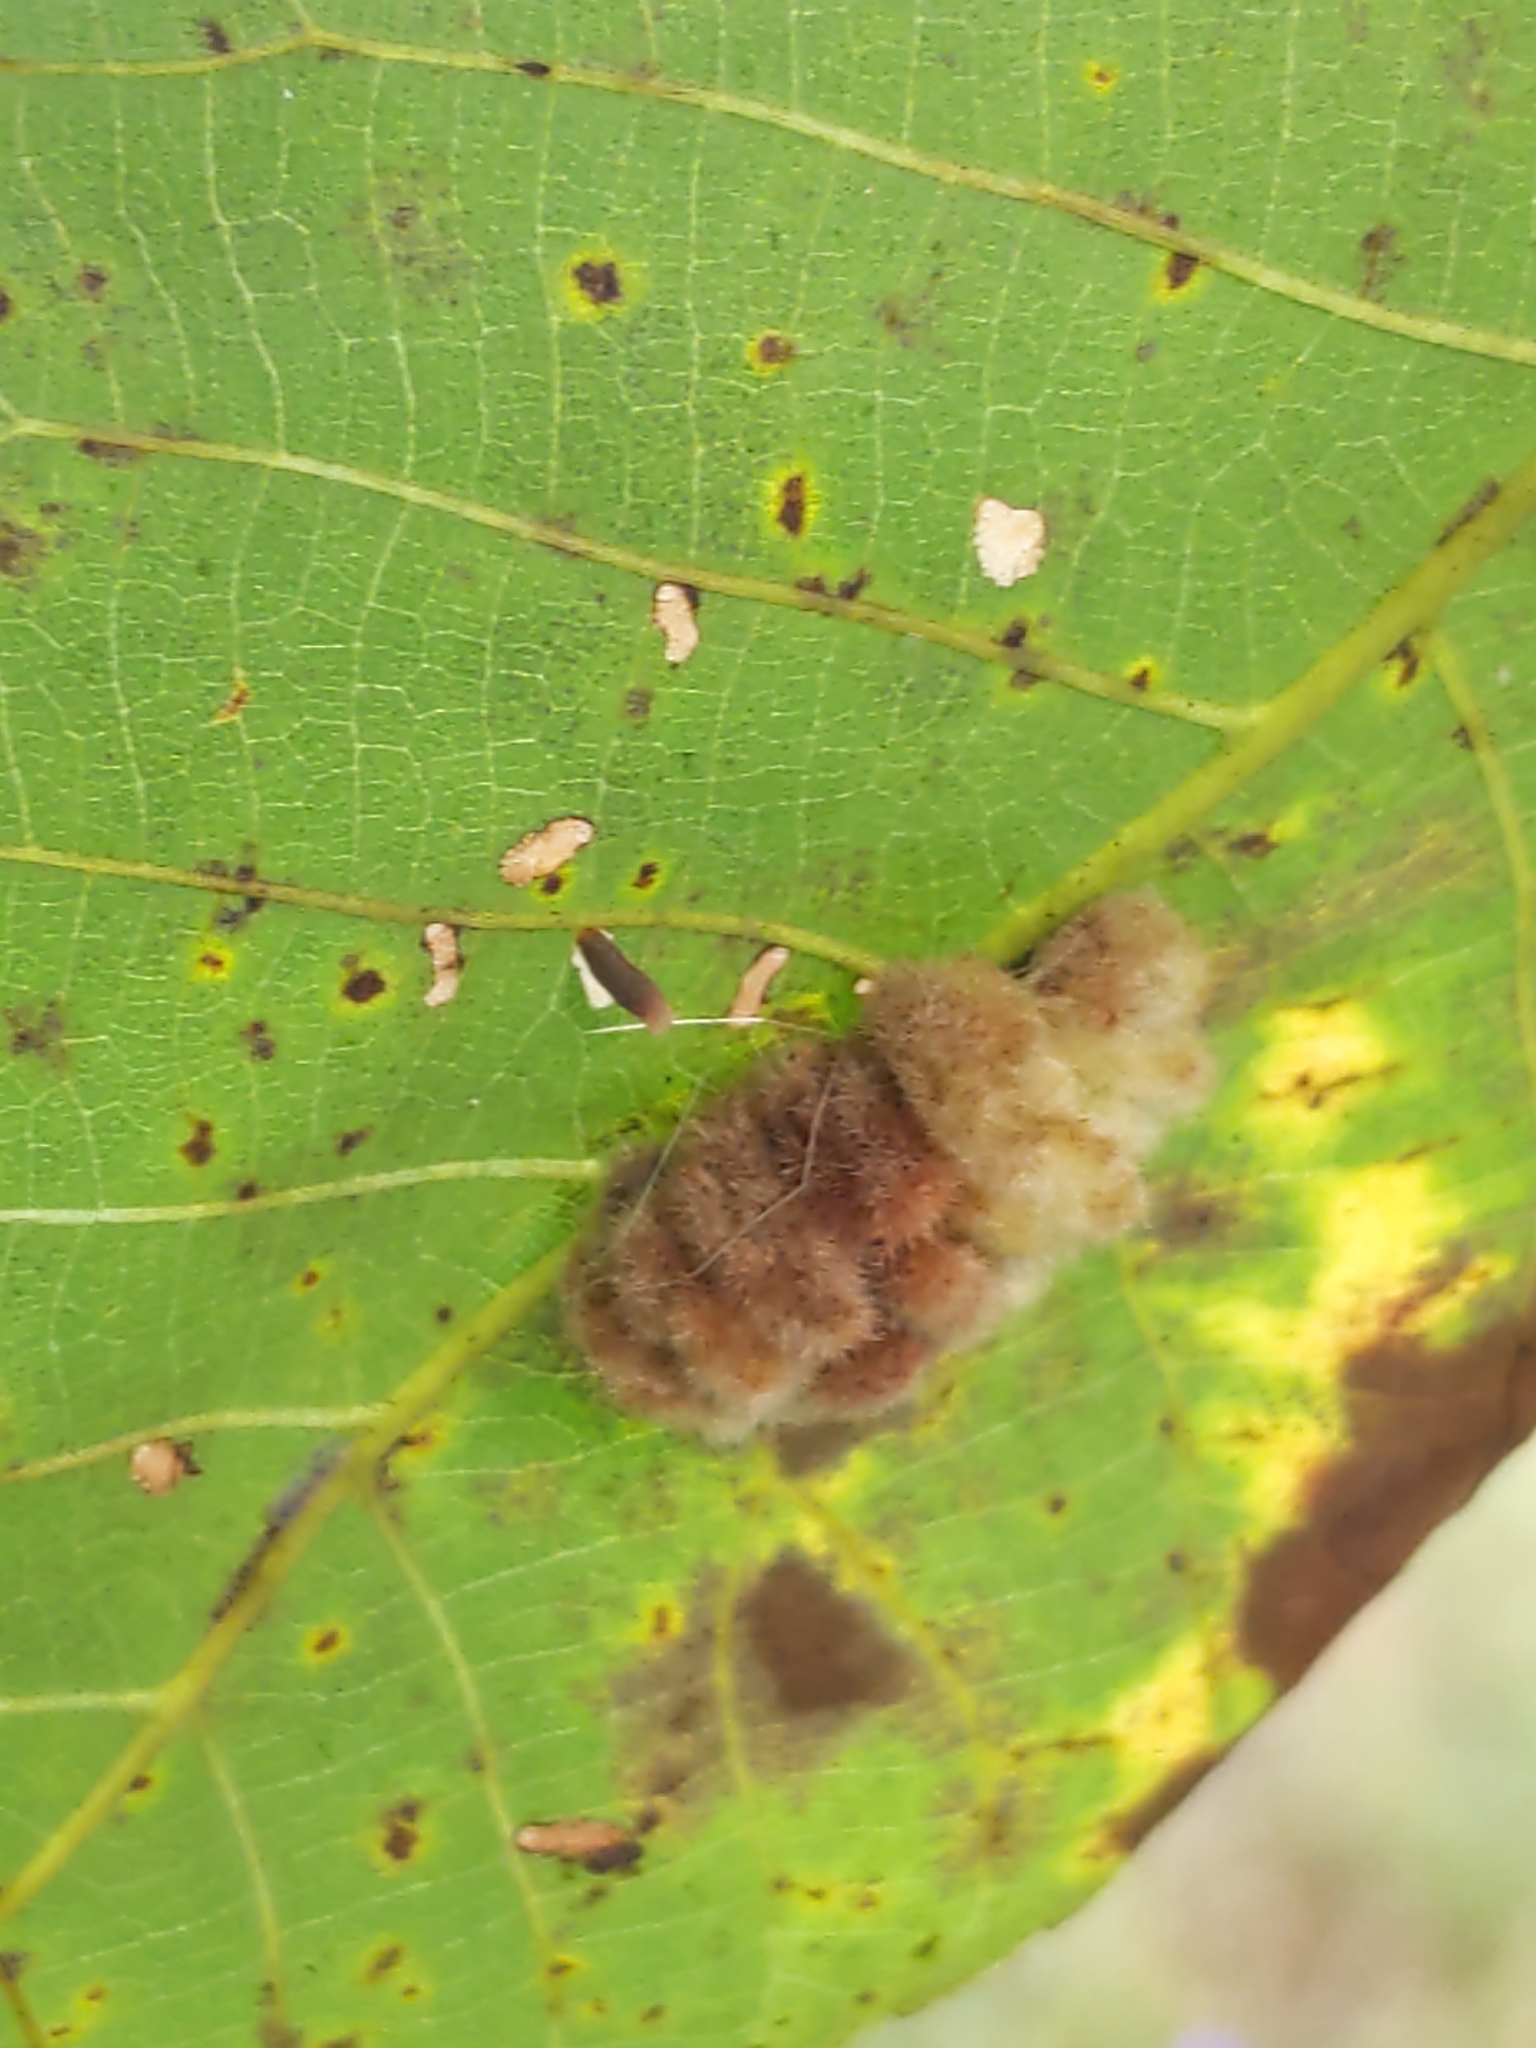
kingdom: Animalia
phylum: Arthropoda
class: Insecta
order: Diptera
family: Cecidomyiidae
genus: Caryomyia
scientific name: Caryomyia aggregata
